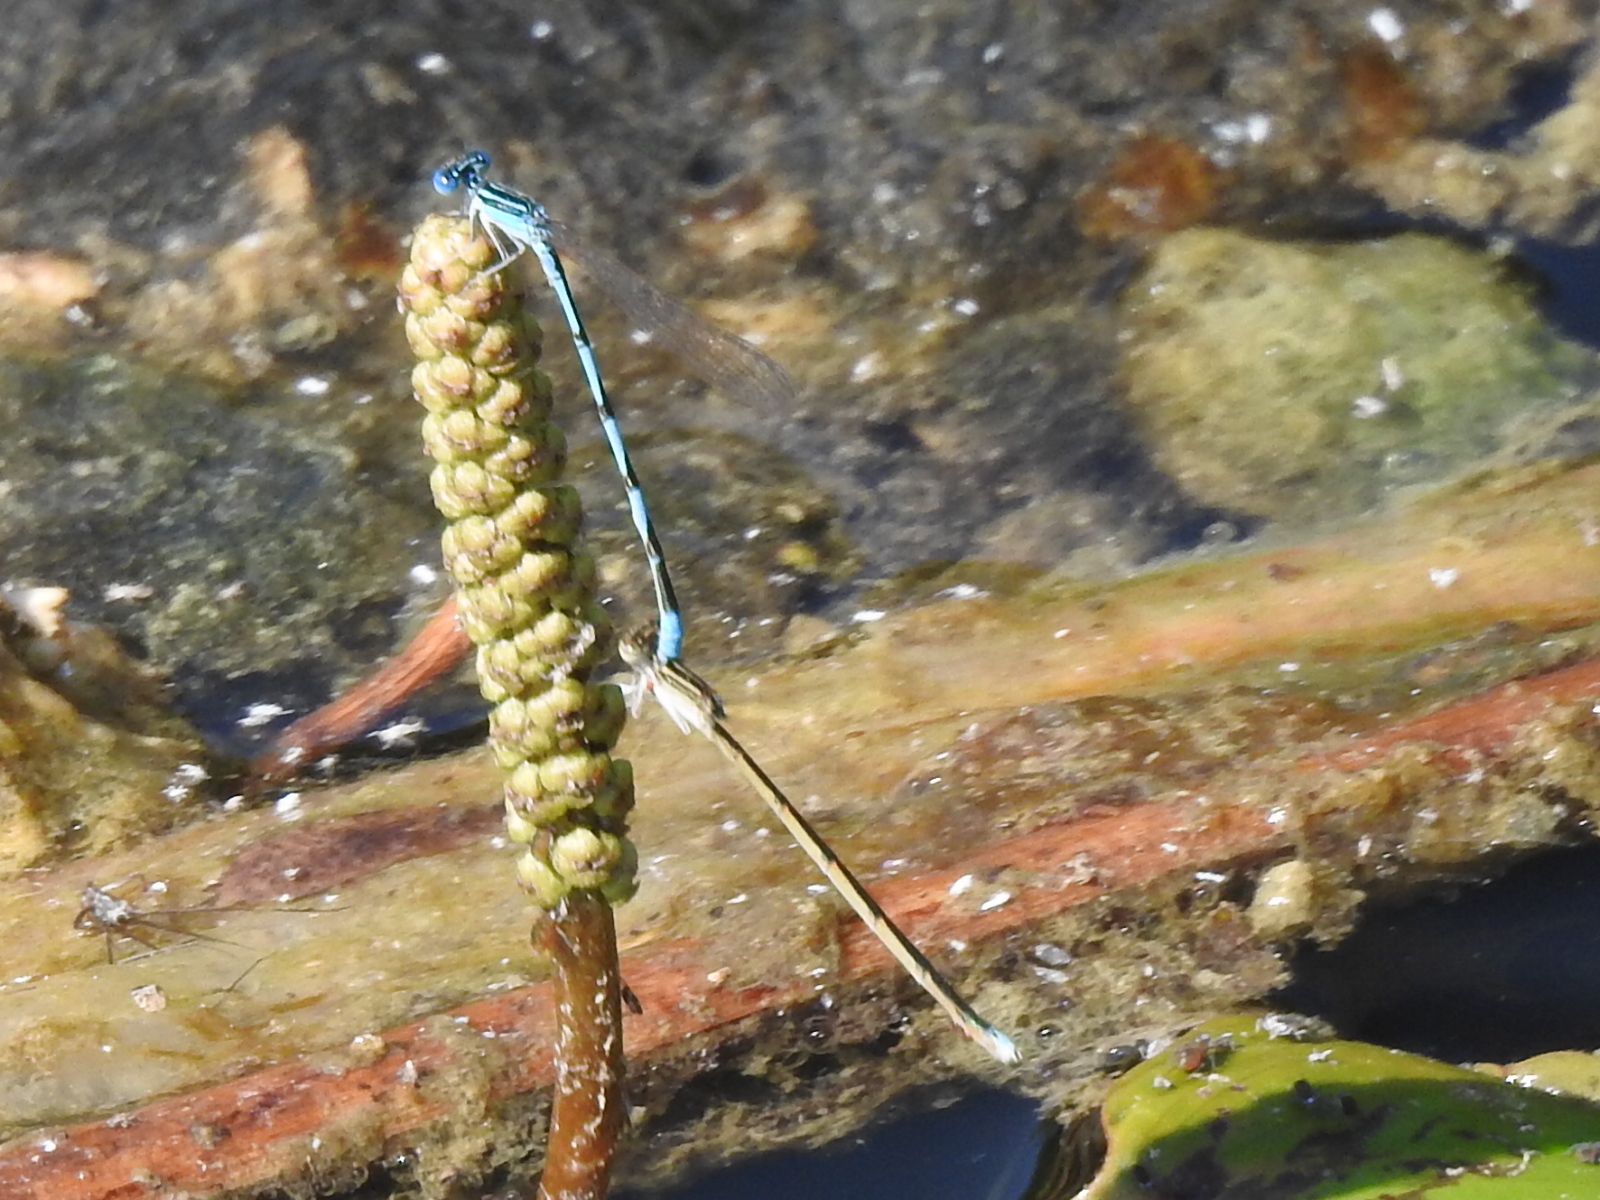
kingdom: Animalia
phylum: Arthropoda
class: Insecta
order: Odonata
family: Coenagrionidae
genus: Enallagma
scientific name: Enallagma basidens
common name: Double-striped bluet
